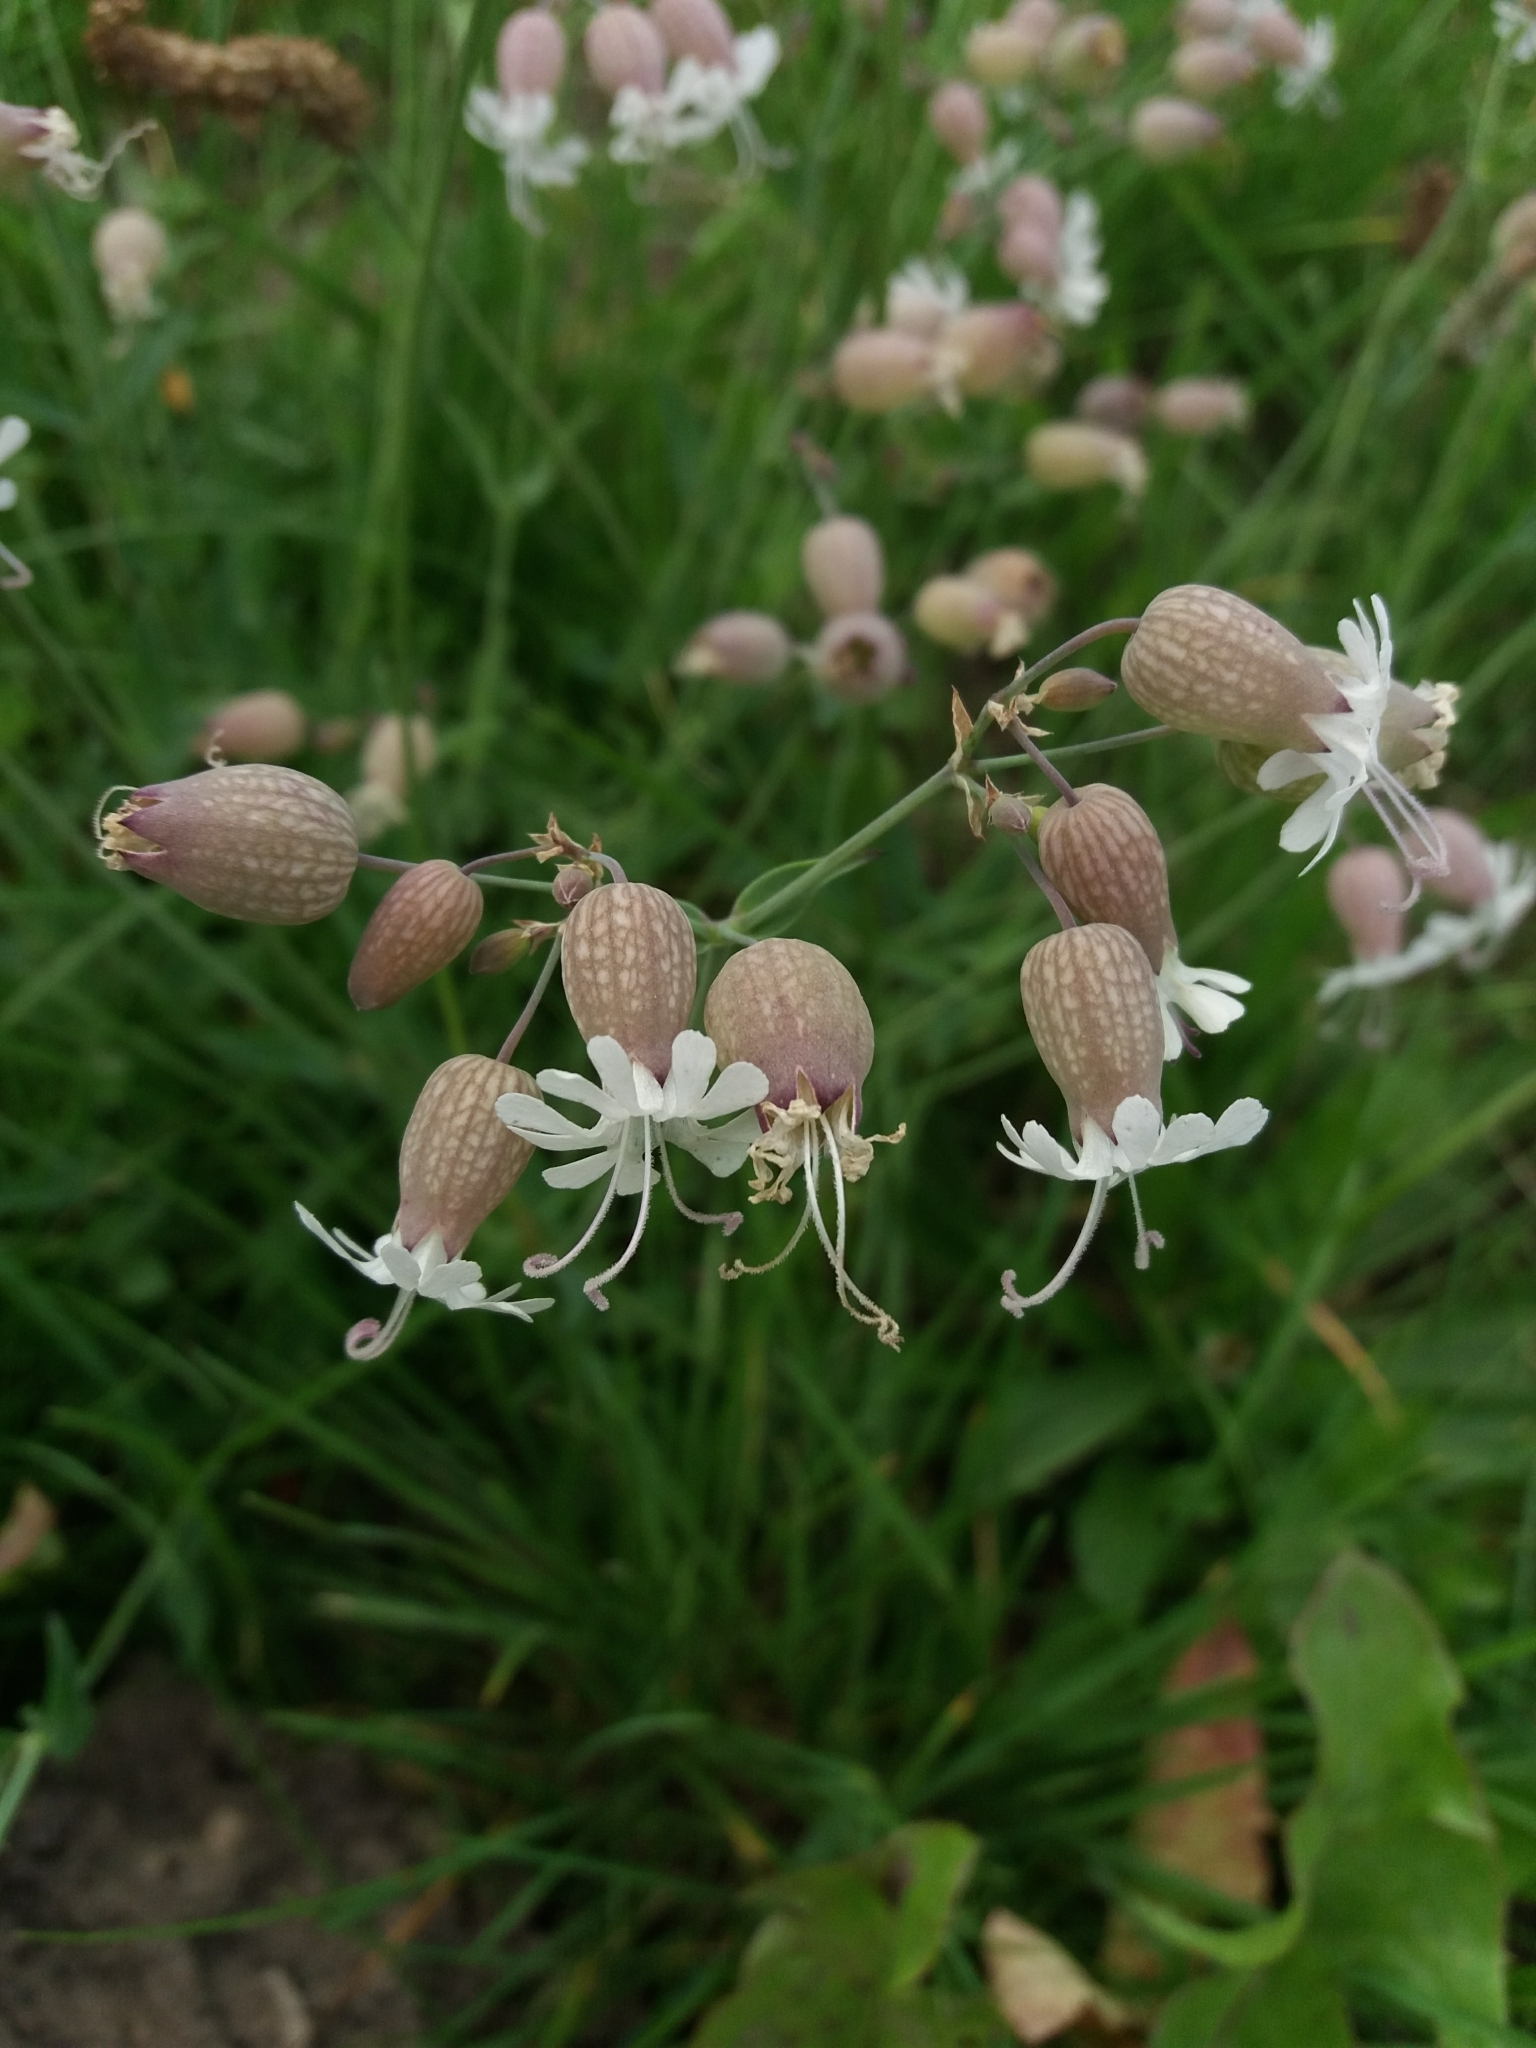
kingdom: Plantae
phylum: Tracheophyta
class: Magnoliopsida
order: Caryophyllales
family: Caryophyllaceae
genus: Silene
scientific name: Silene vulgaris
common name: Bladder campion
